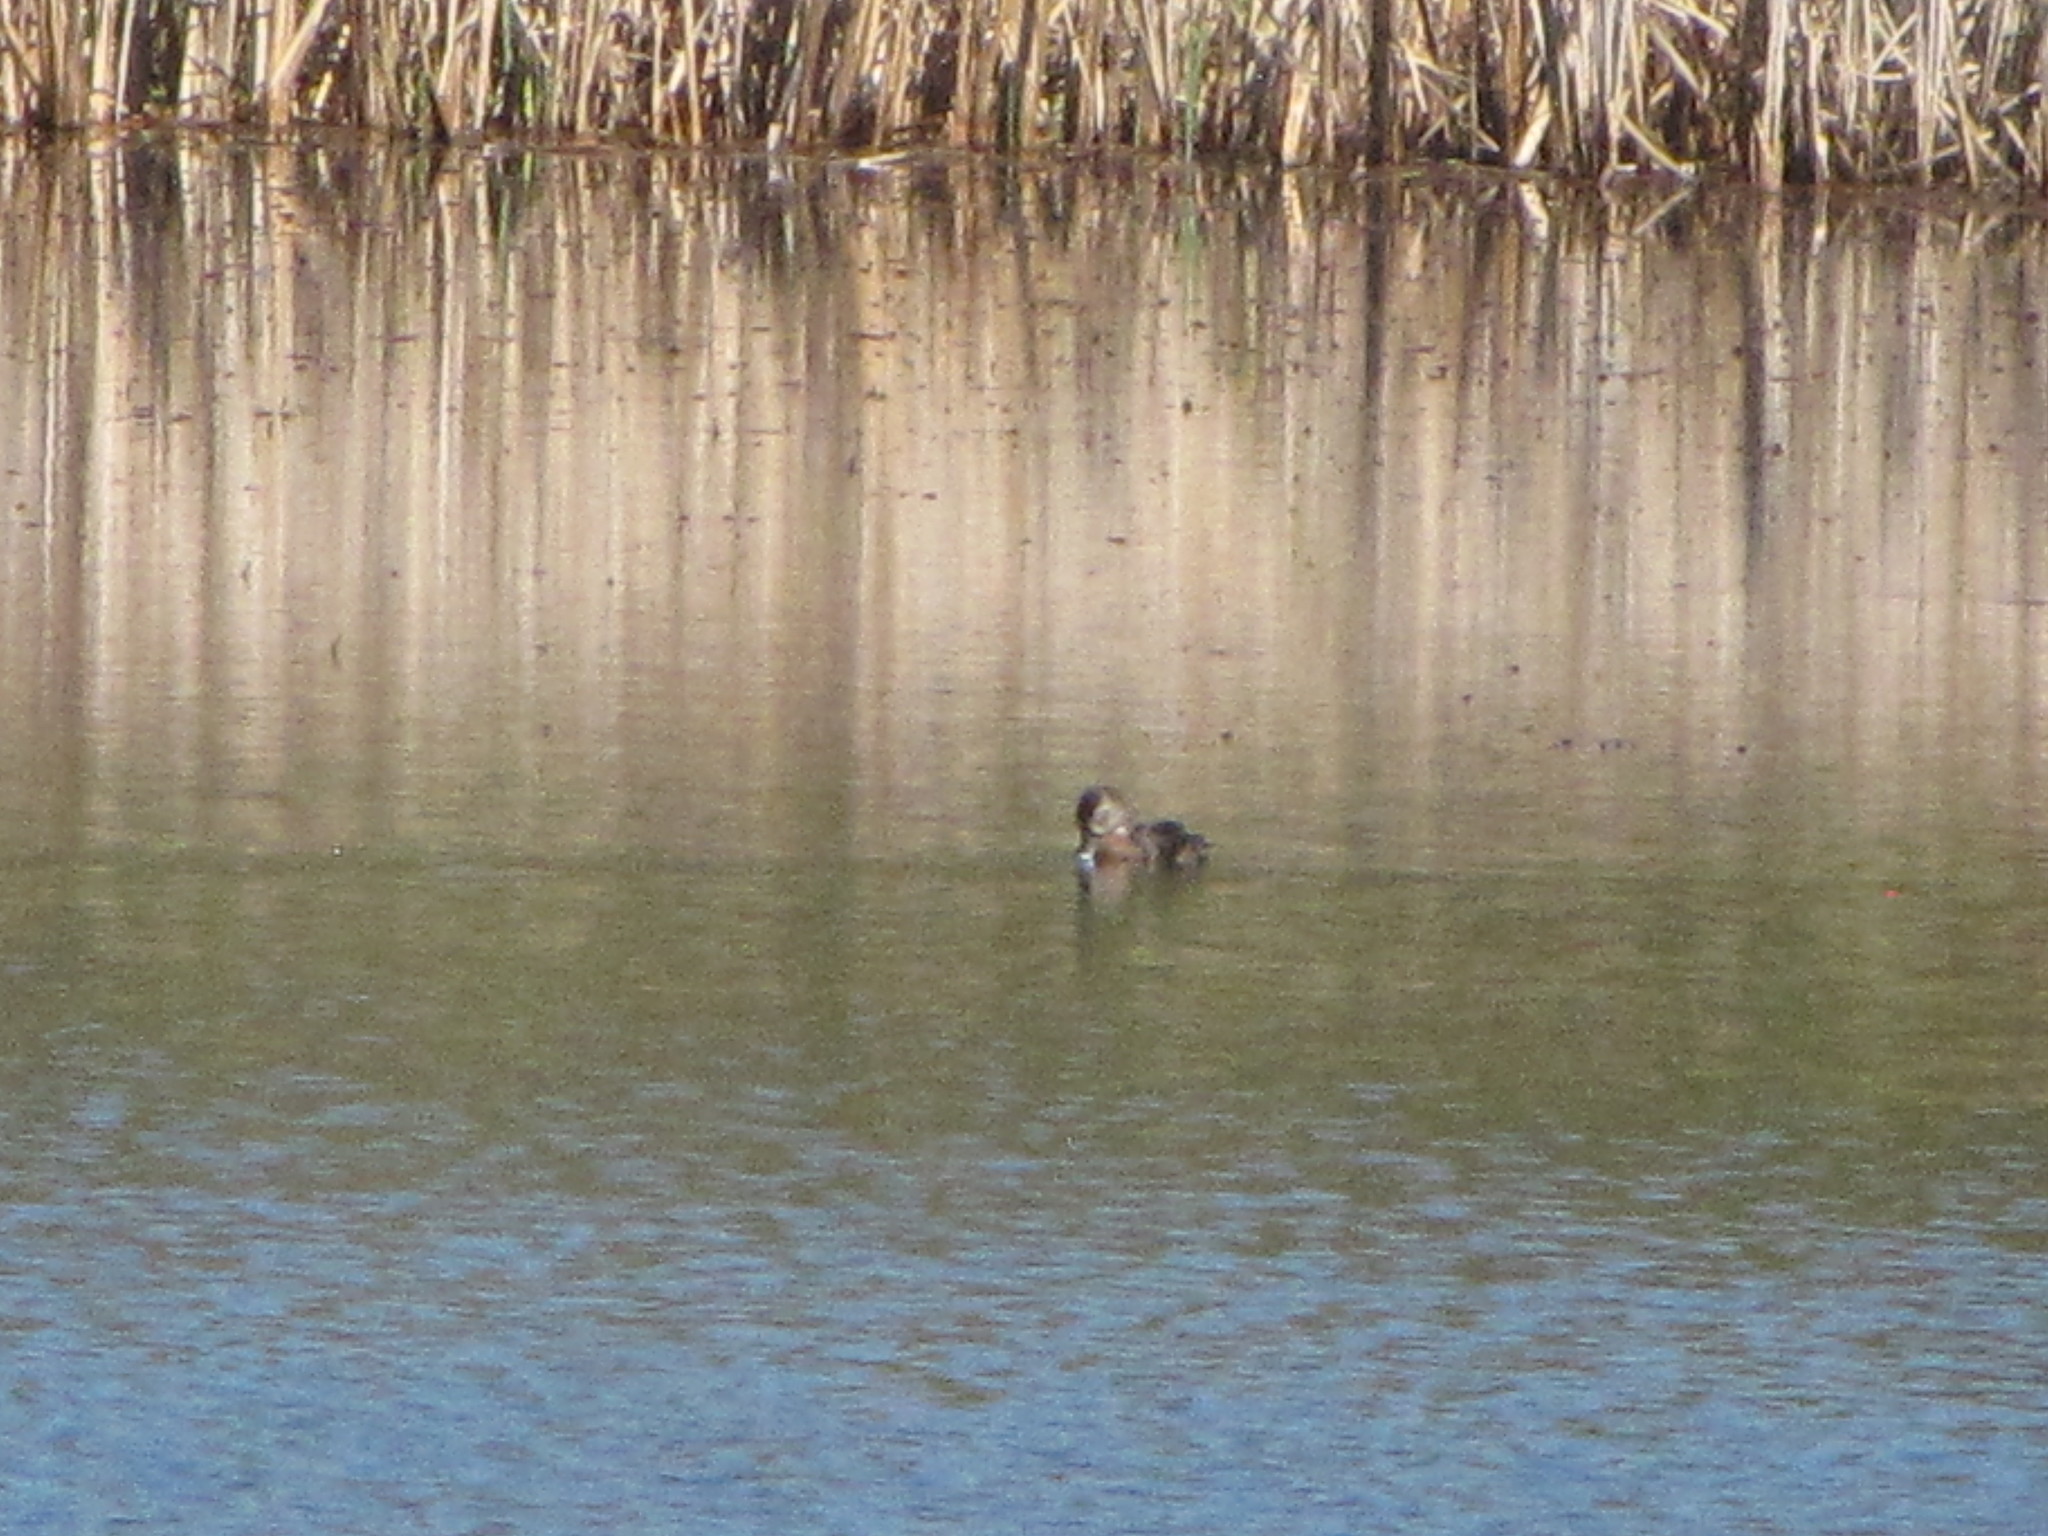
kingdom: Animalia
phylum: Chordata
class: Aves
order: Anseriformes
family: Anatidae
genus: Aix
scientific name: Aix sponsa
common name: Wood duck
